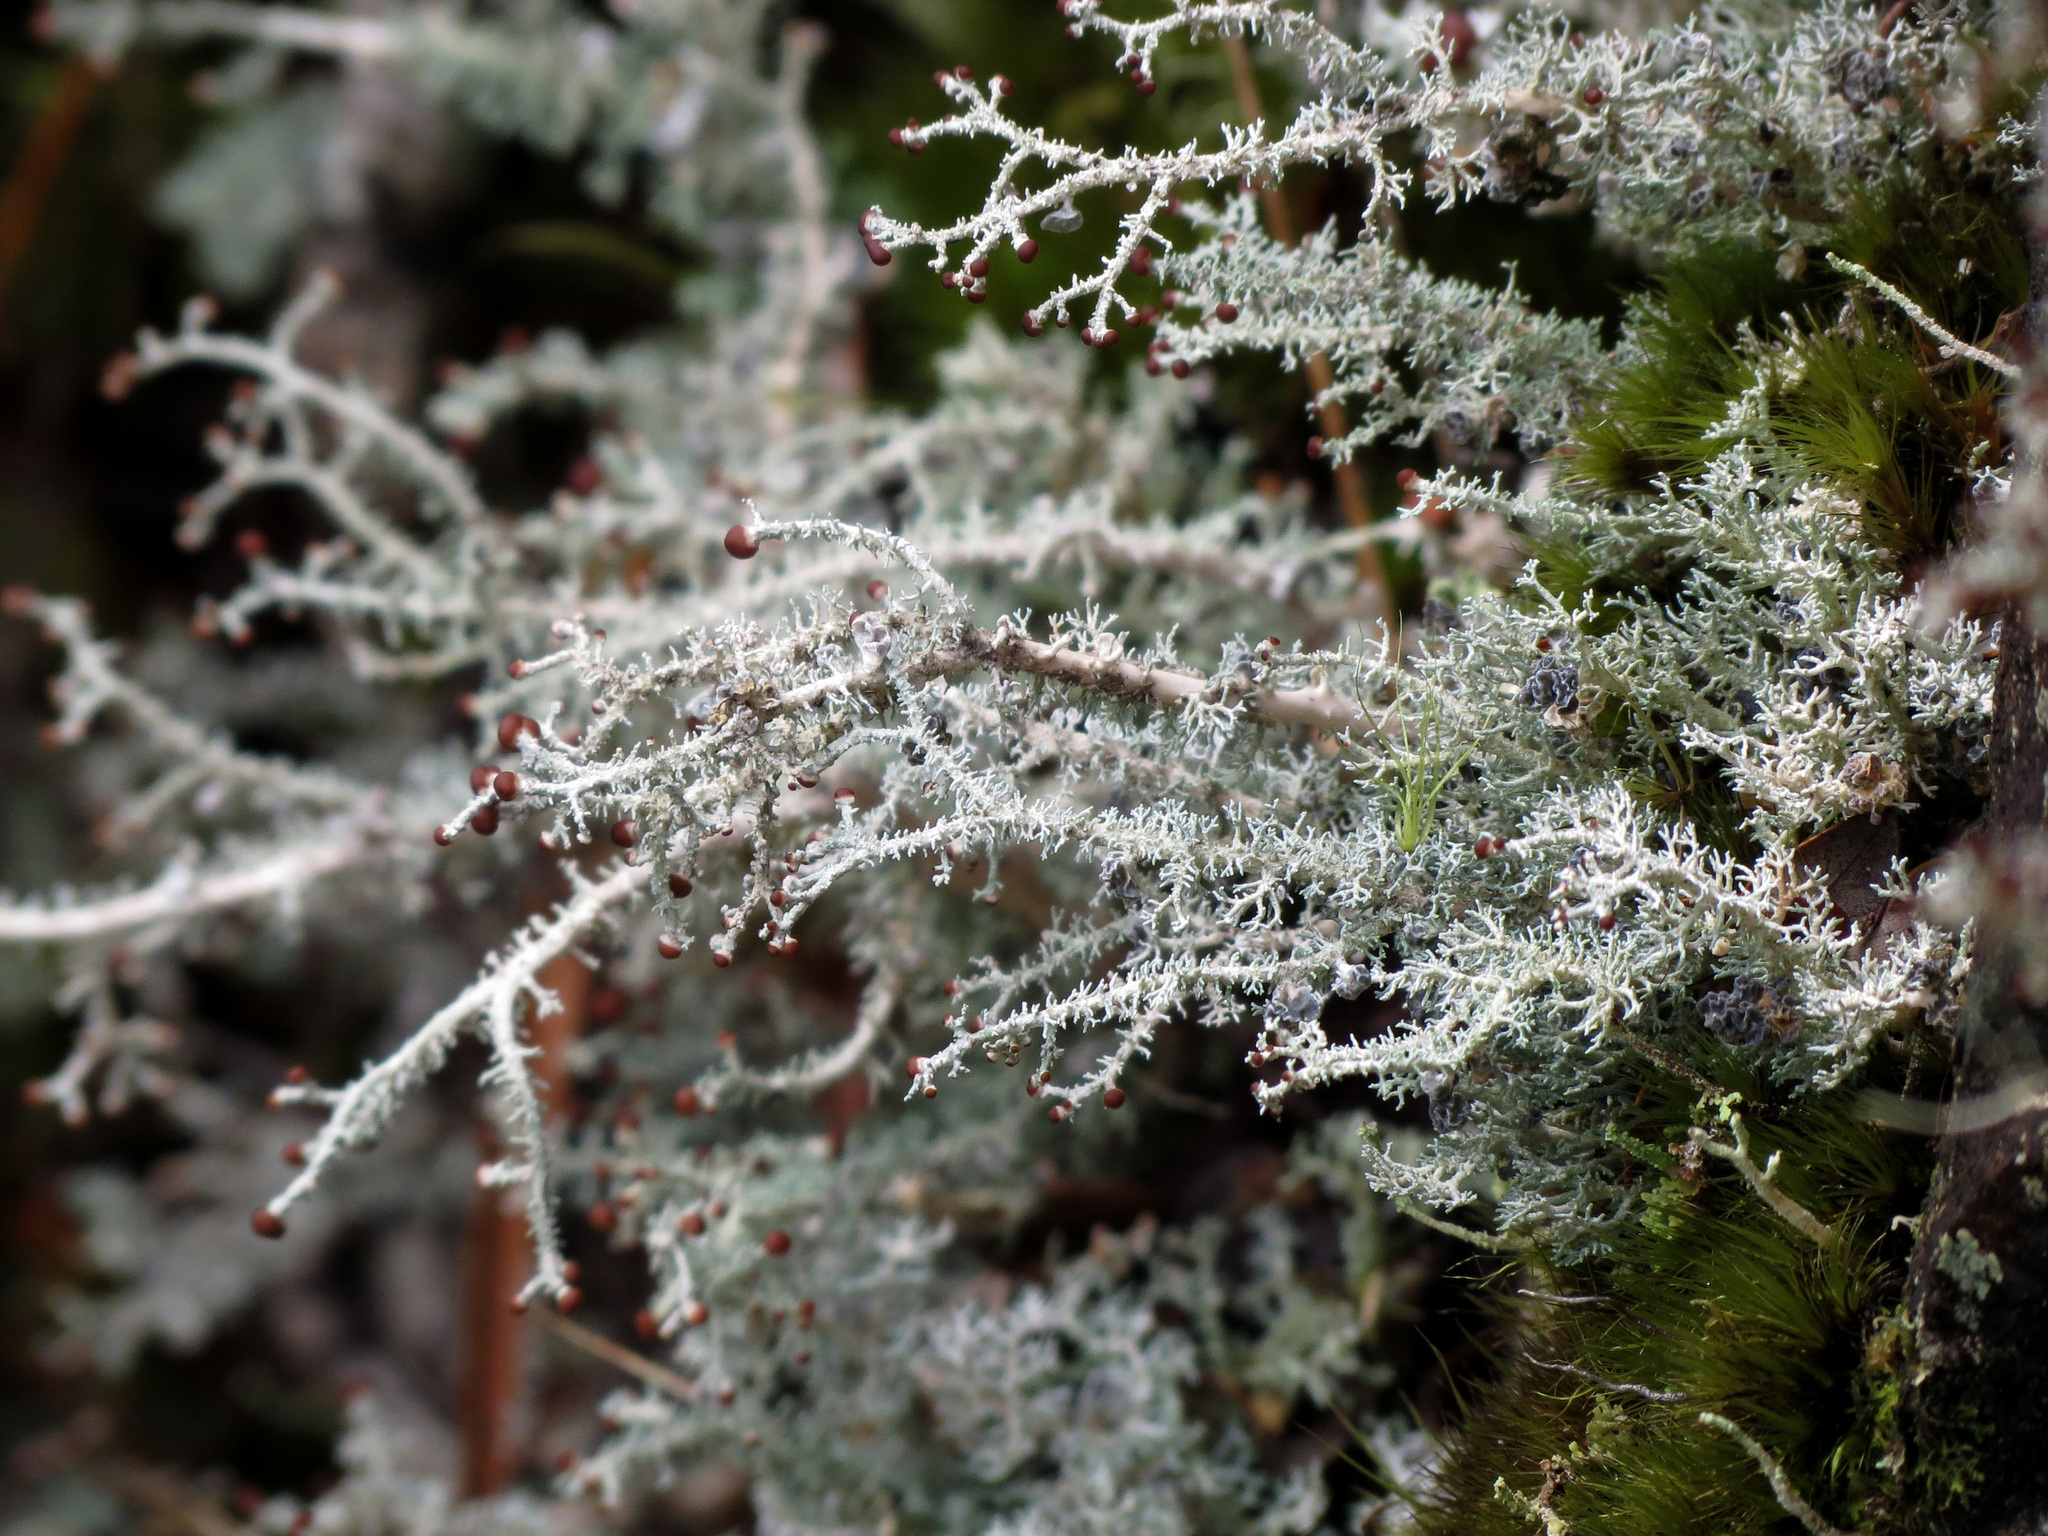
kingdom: Fungi
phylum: Ascomycota
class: Lecanoromycetes
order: Lecanorales
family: Stereocaulaceae
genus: Stereocaulon
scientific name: Stereocaulon ramulosum
